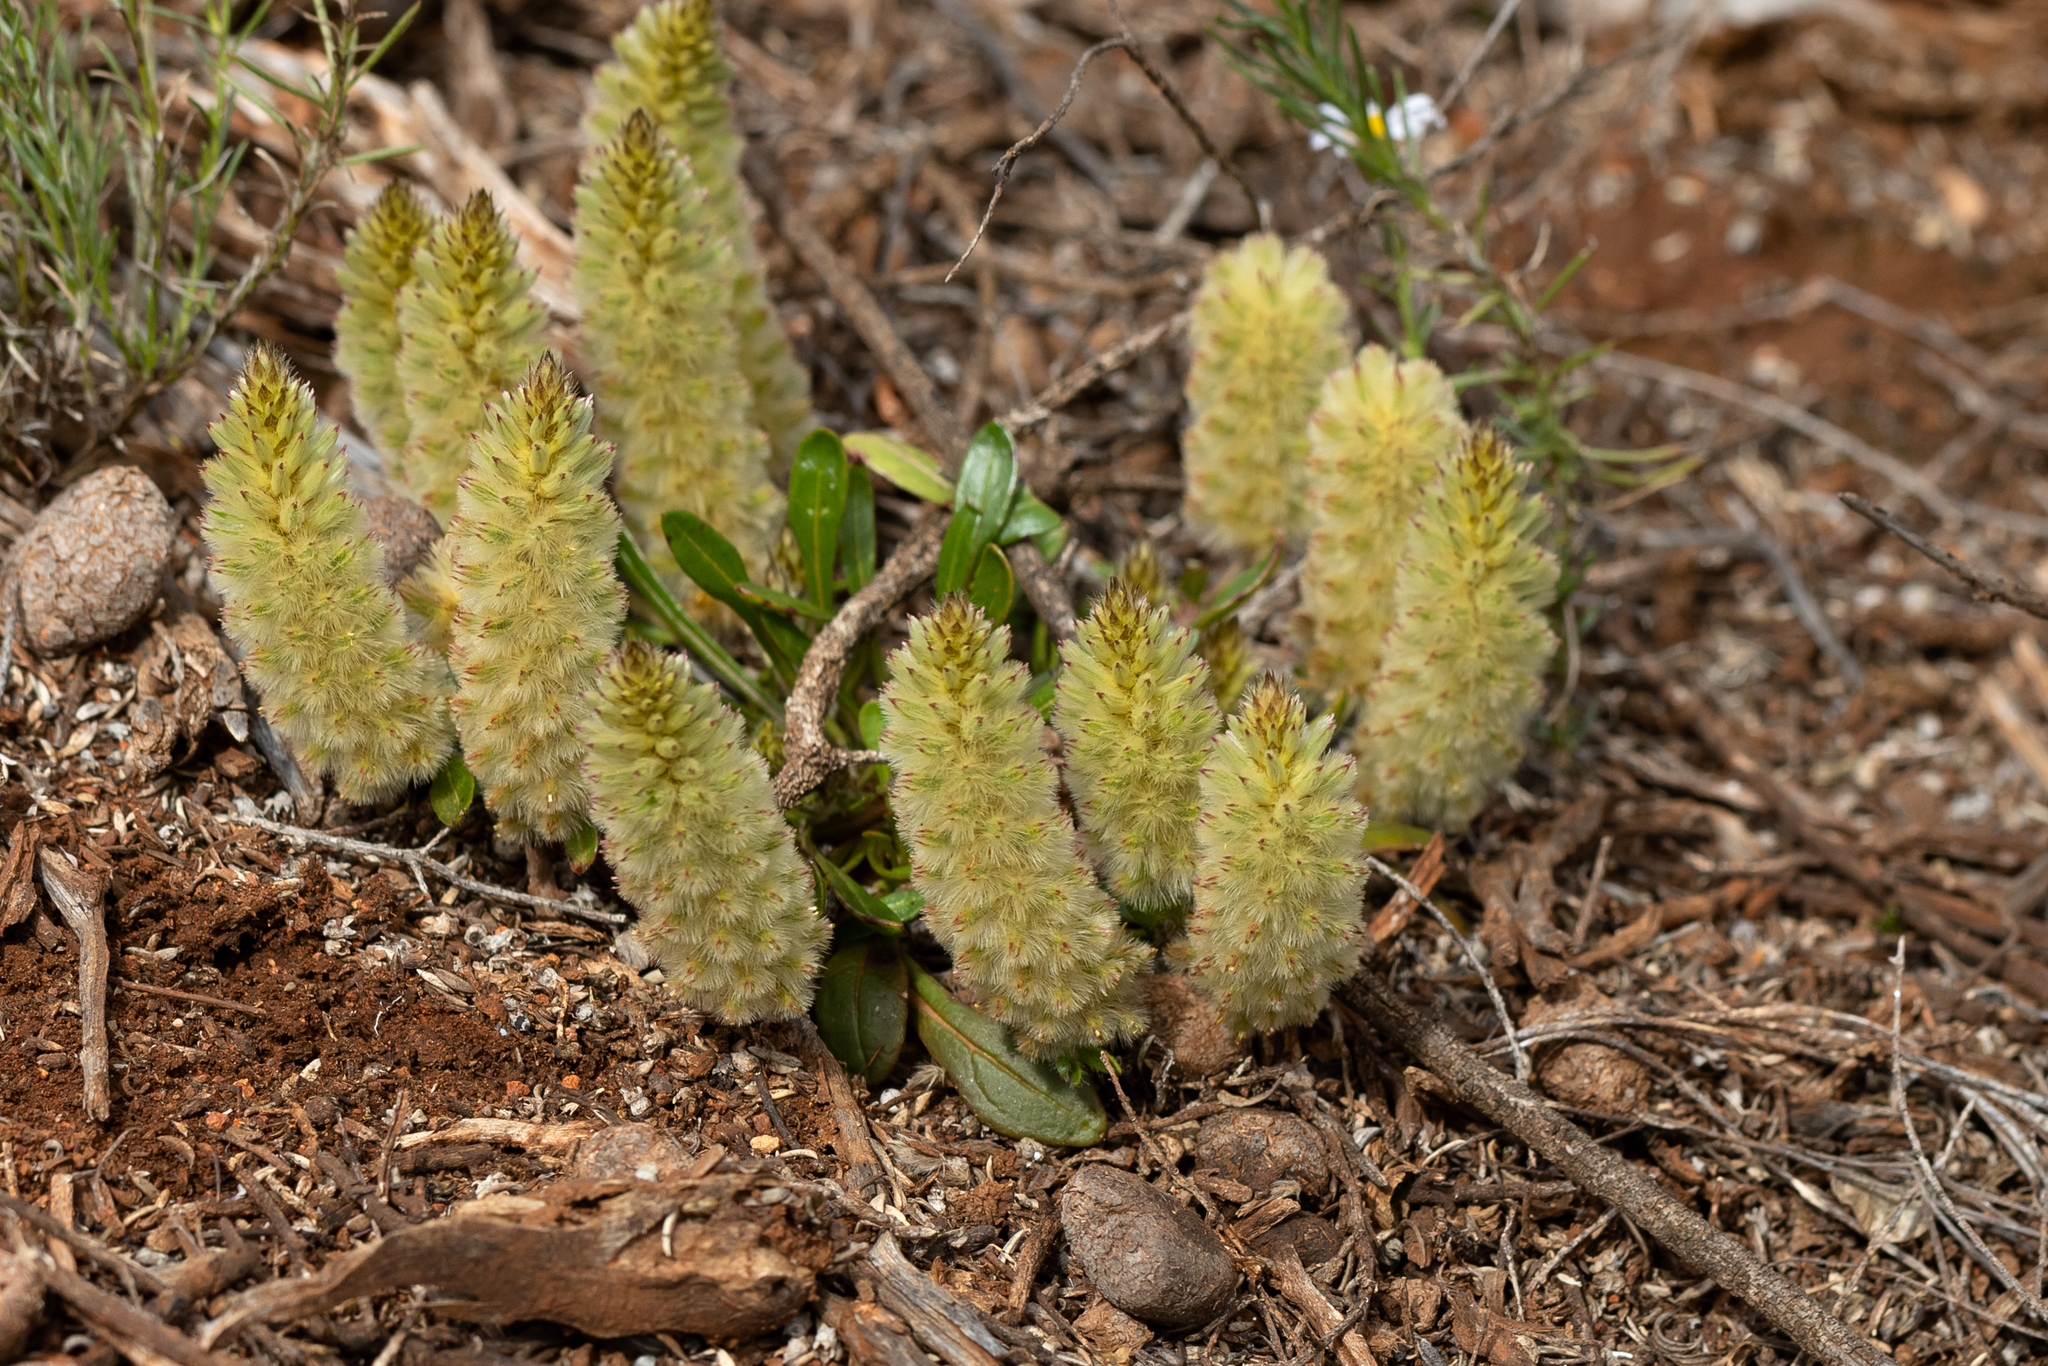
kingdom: Plantae
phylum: Tracheophyta
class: Magnoliopsida
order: Caryophyllales
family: Amaranthaceae
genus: Ptilotus
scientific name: Ptilotus spathulatus
